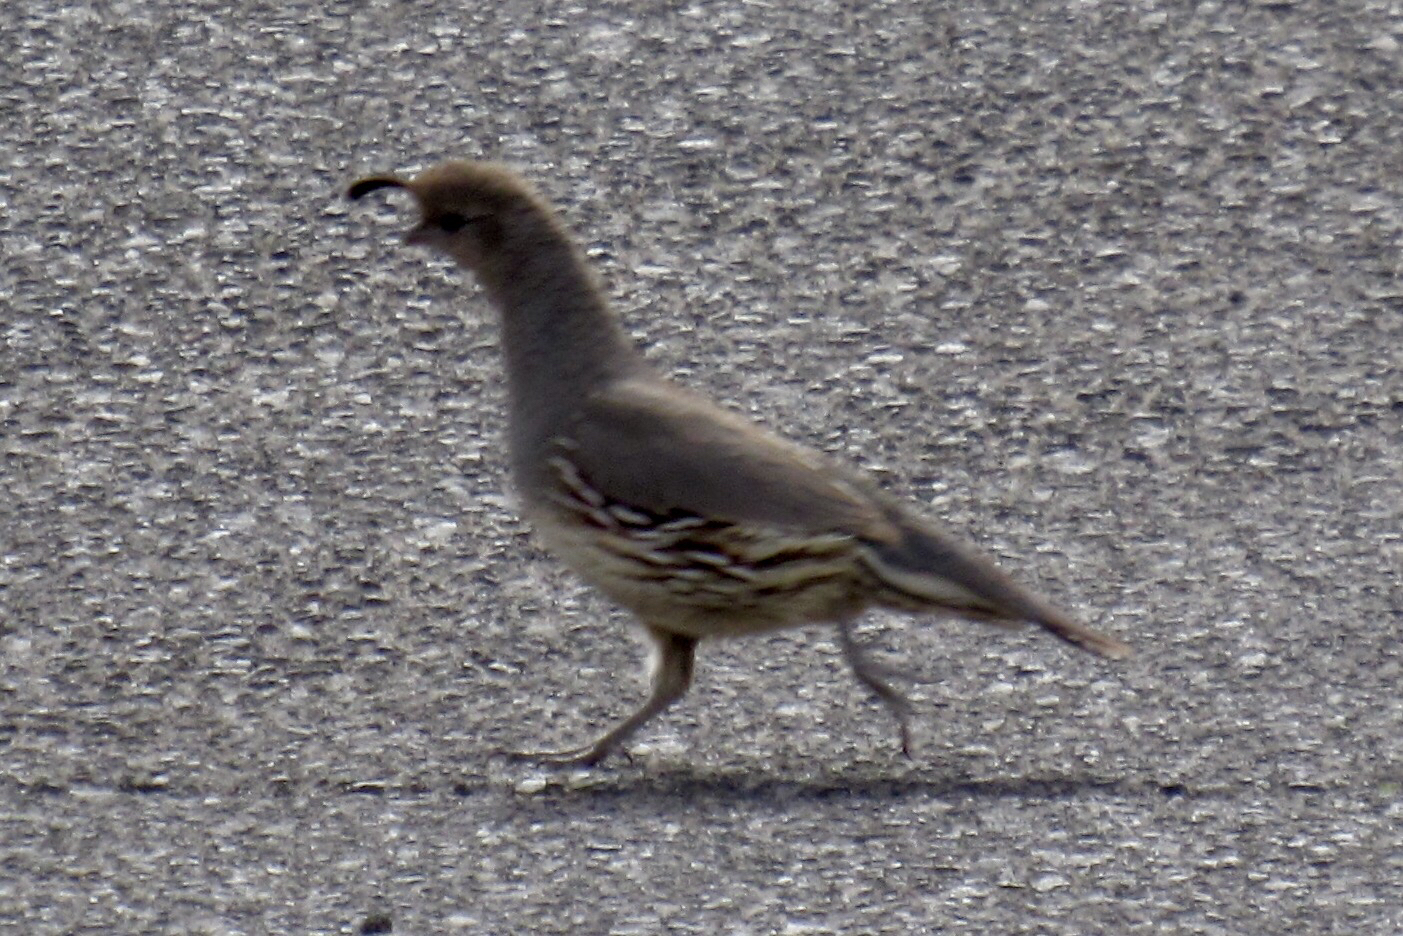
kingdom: Animalia
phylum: Chordata
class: Aves
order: Galliformes
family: Odontophoridae
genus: Callipepla
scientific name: Callipepla gambelii
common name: Gambel's quail
